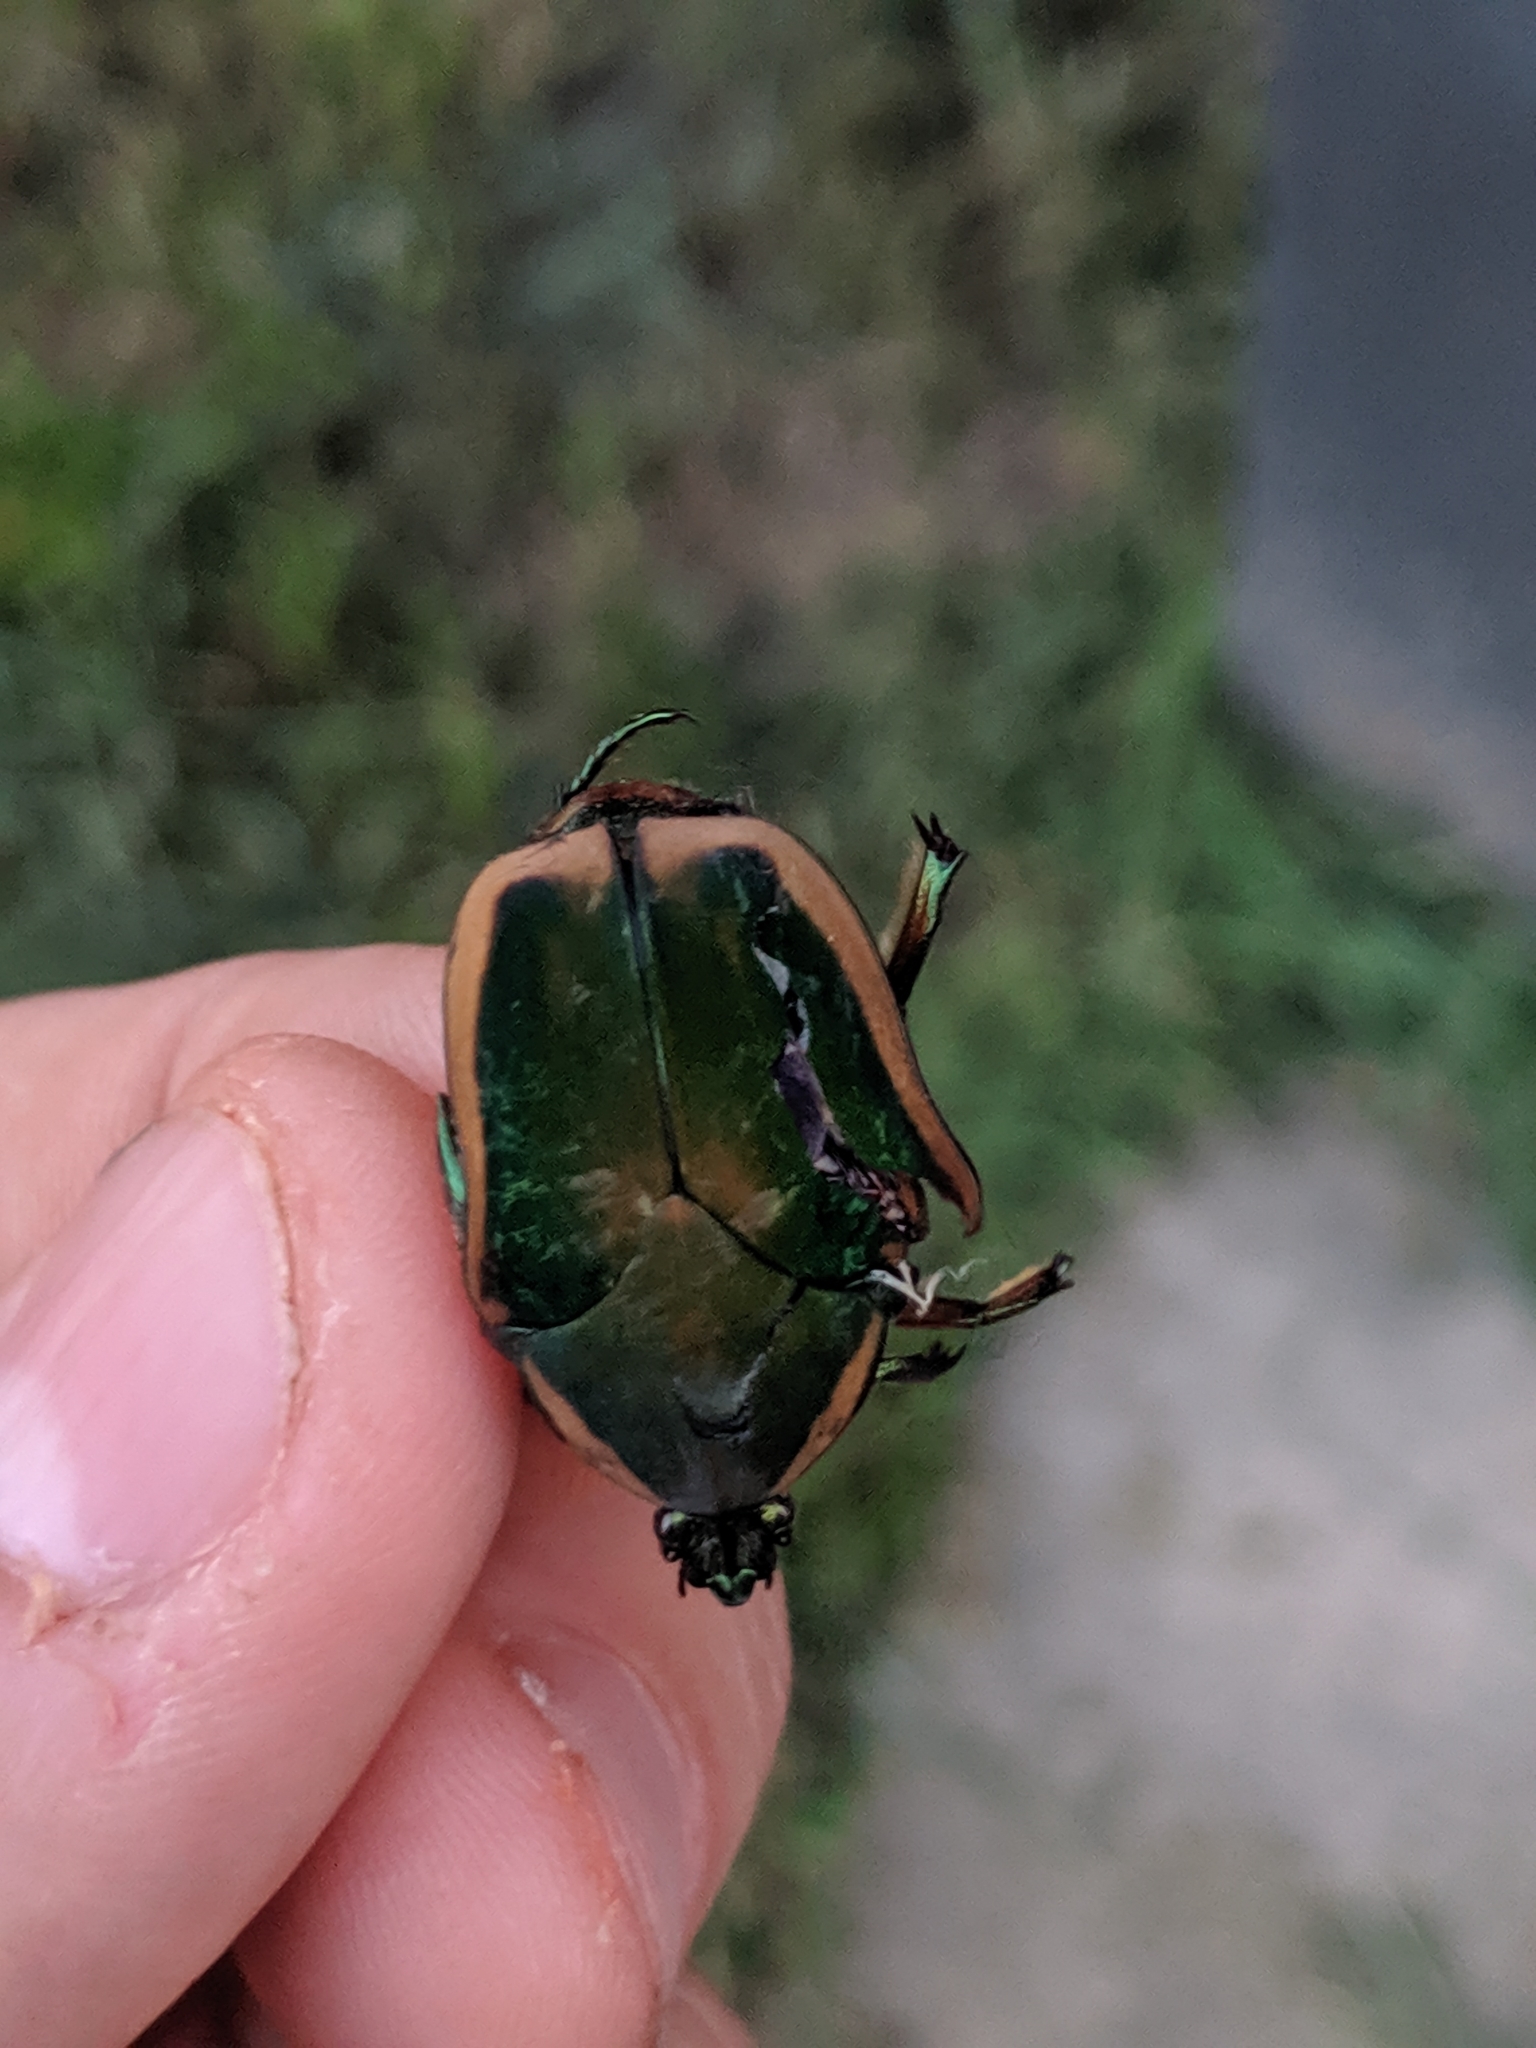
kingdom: Animalia
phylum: Arthropoda
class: Insecta
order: Coleoptera
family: Scarabaeidae
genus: Cotinis
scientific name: Cotinis nitida
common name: Common green june beetle
